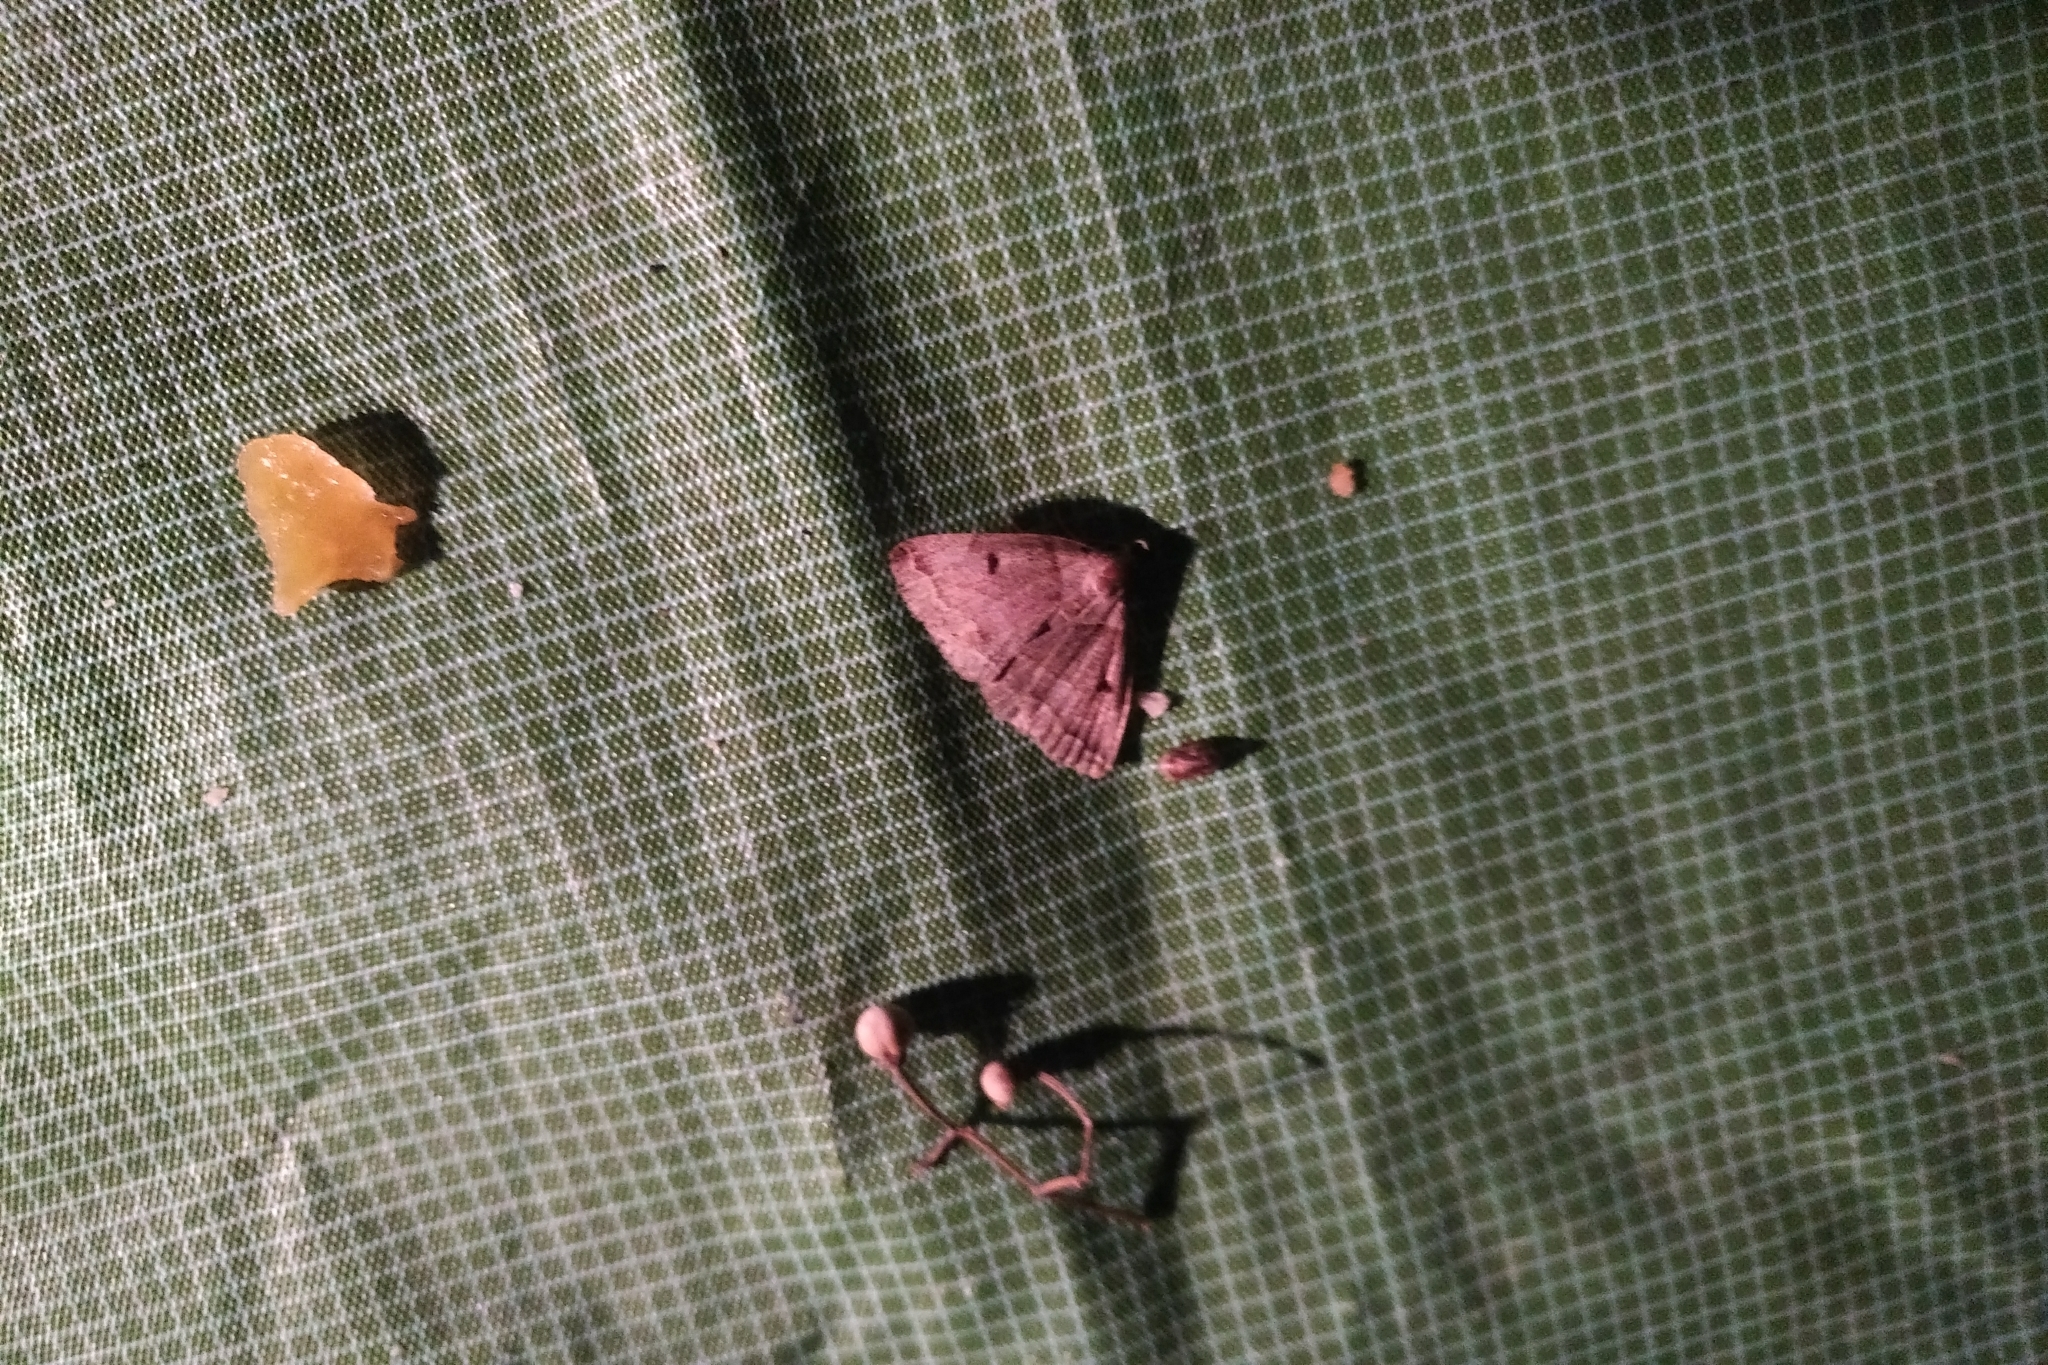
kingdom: Animalia
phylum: Arthropoda
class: Insecta
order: Lepidoptera
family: Erebidae
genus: Lymantria
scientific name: Lymantria dispar
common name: Gypsy moth
